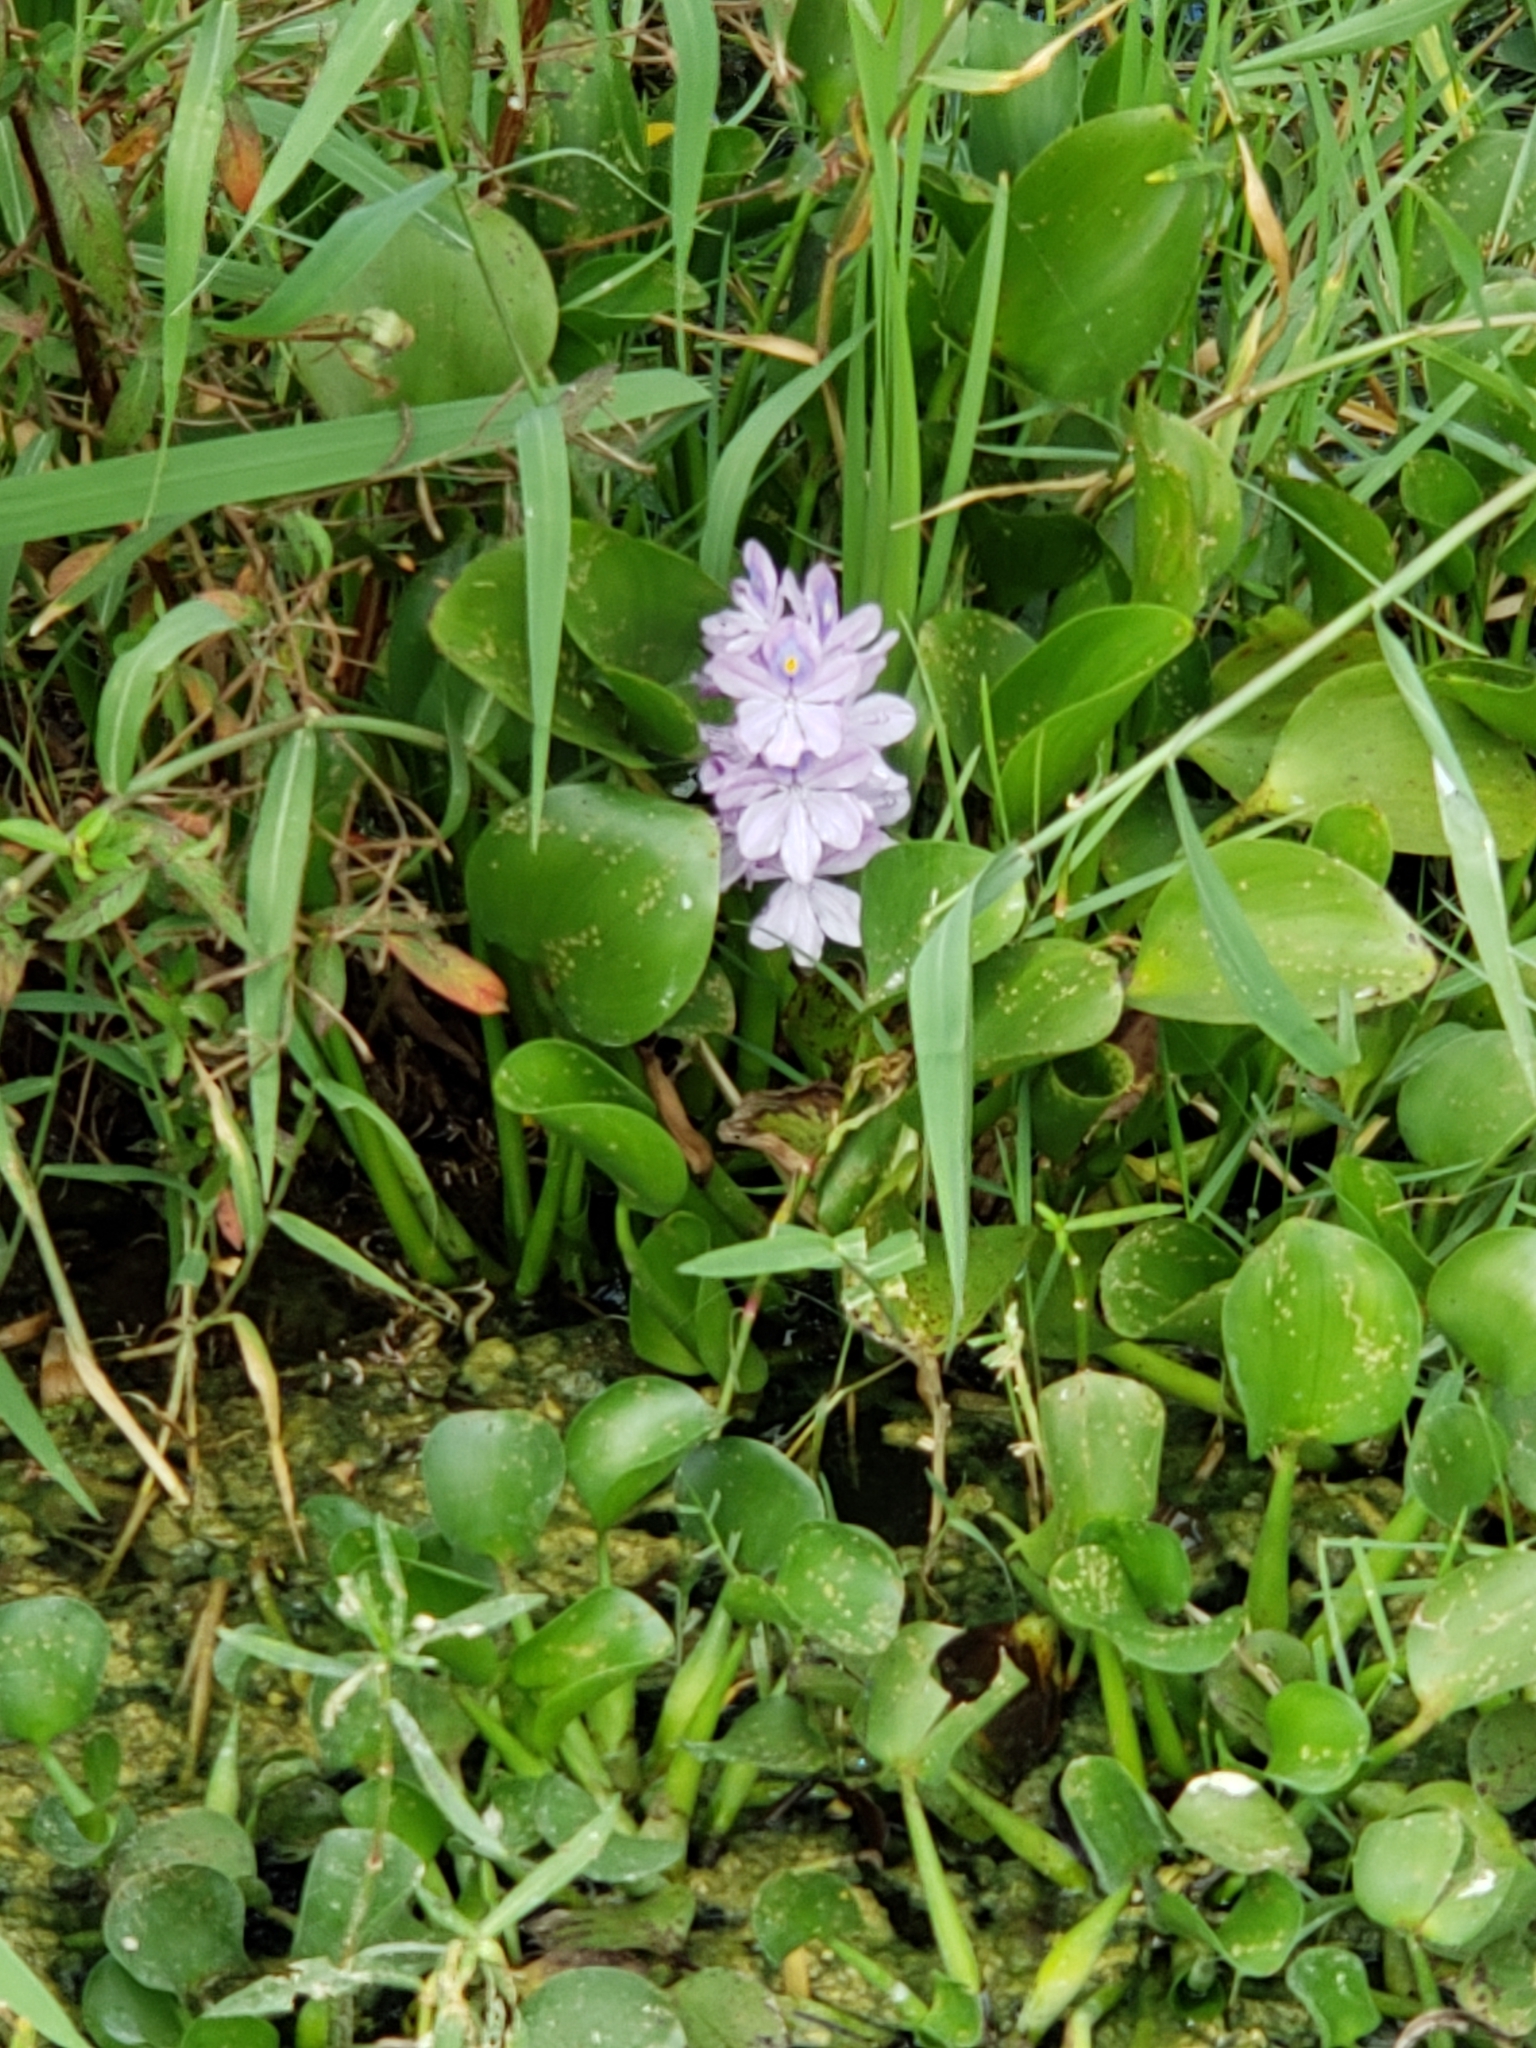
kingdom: Plantae
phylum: Tracheophyta
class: Liliopsida
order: Commelinales
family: Pontederiaceae
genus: Pontederia
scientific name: Pontederia crassipes
